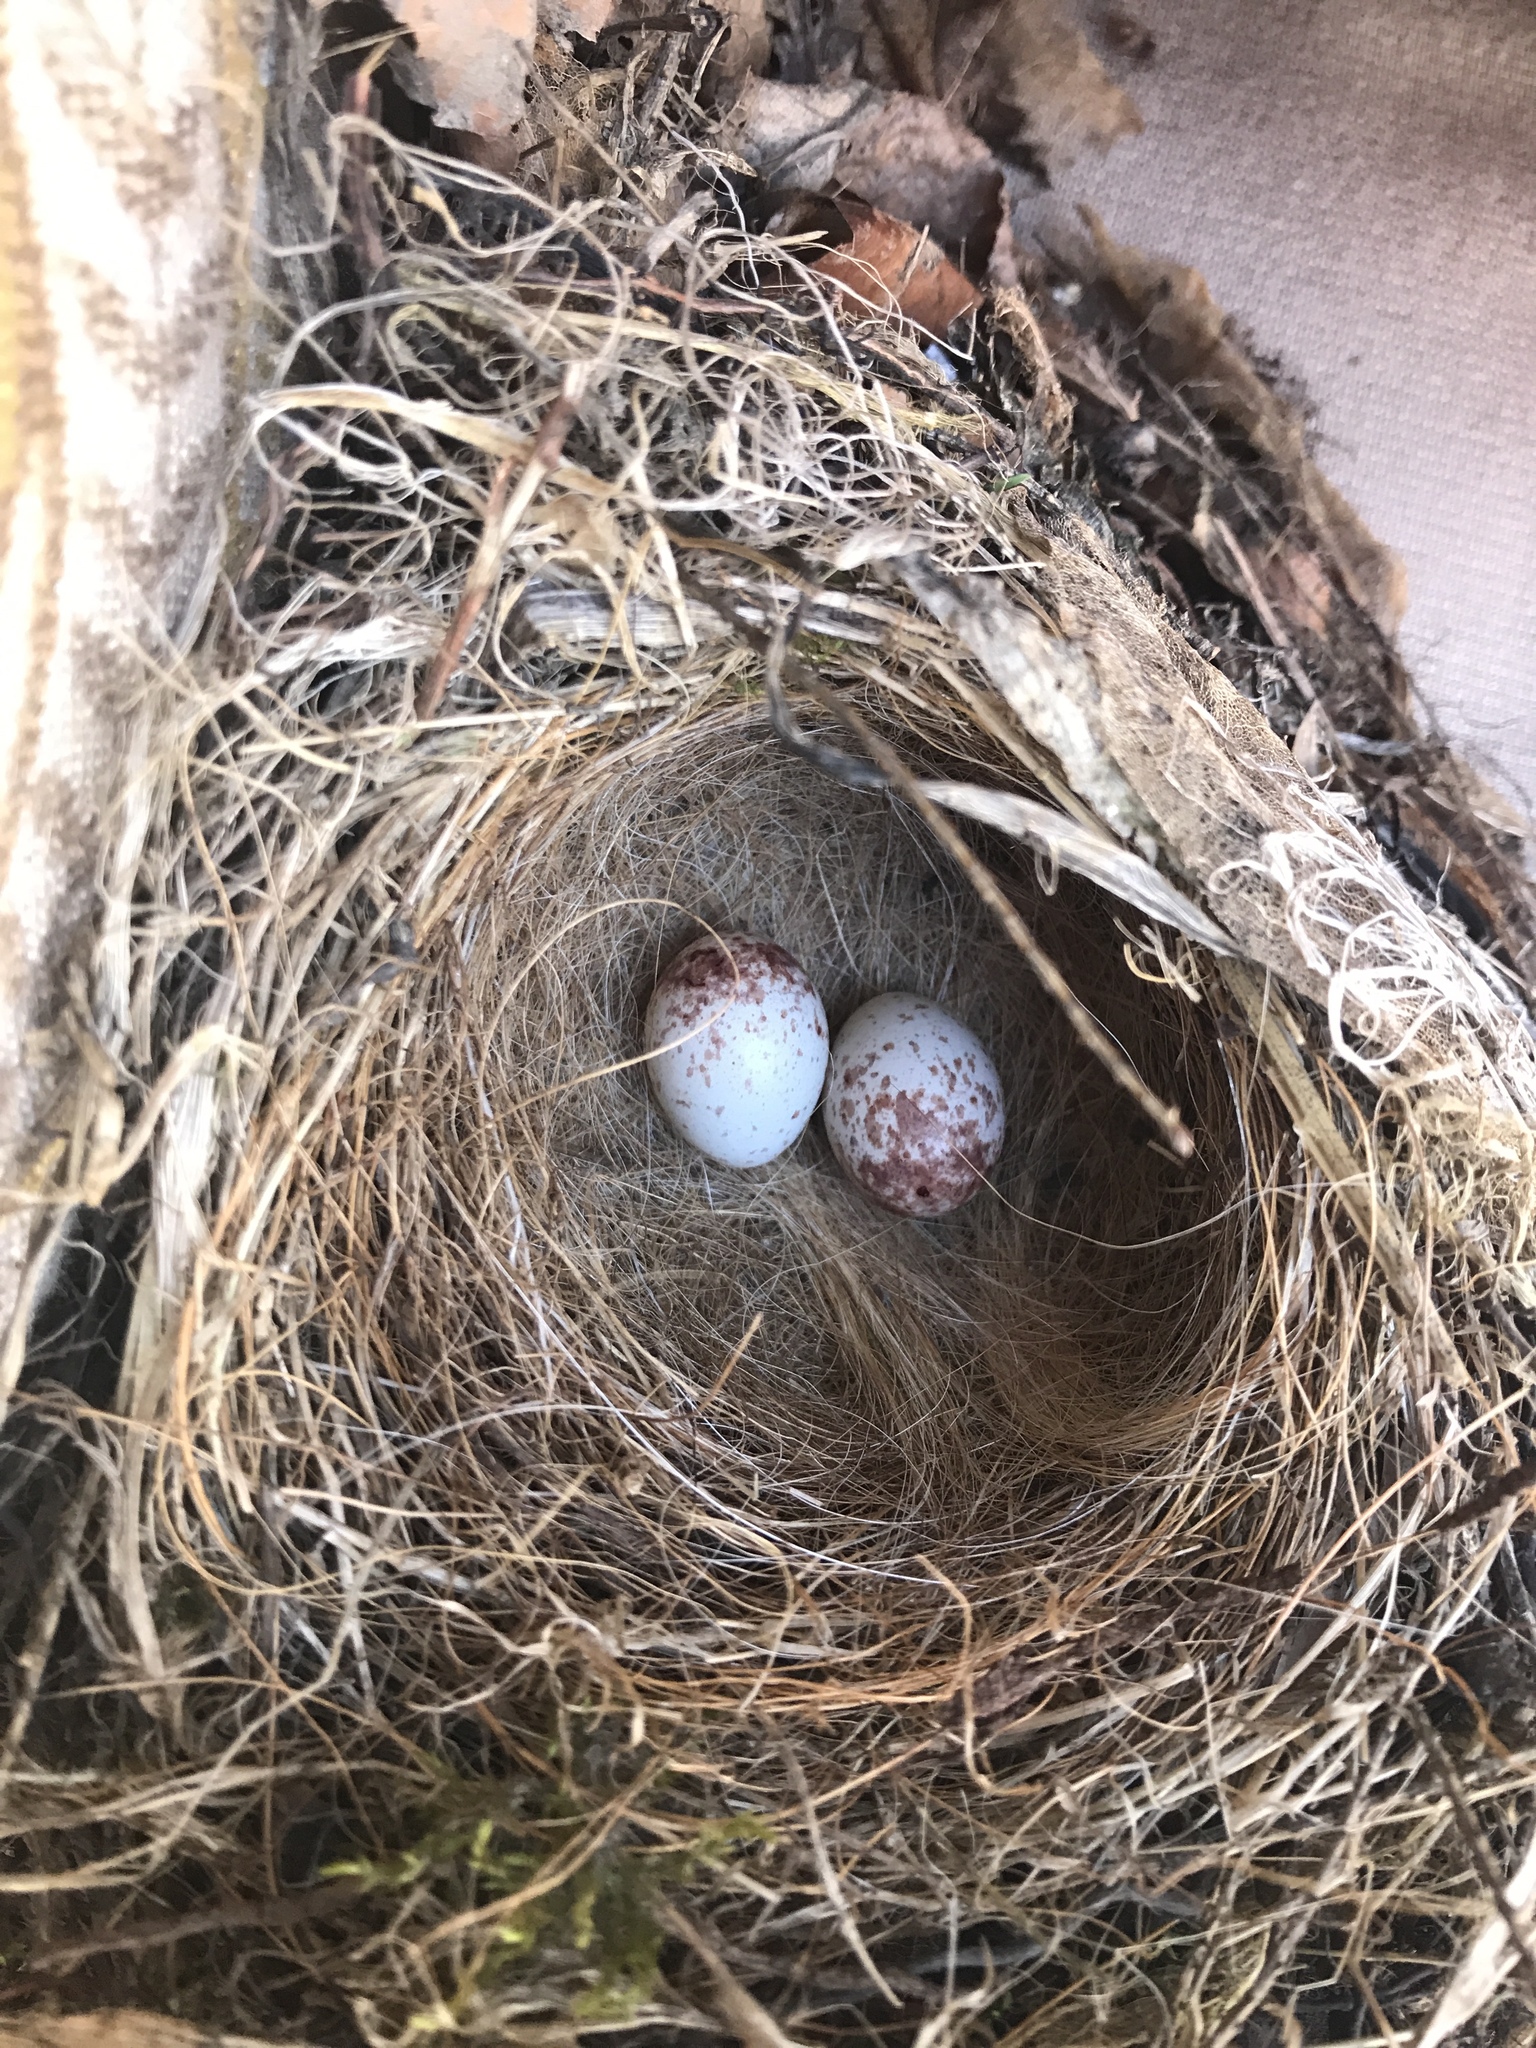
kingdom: Animalia
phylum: Chordata
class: Aves
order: Passeriformes
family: Paridae
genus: Poecile
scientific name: Poecile atricapillus
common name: Black-capped chickadee
